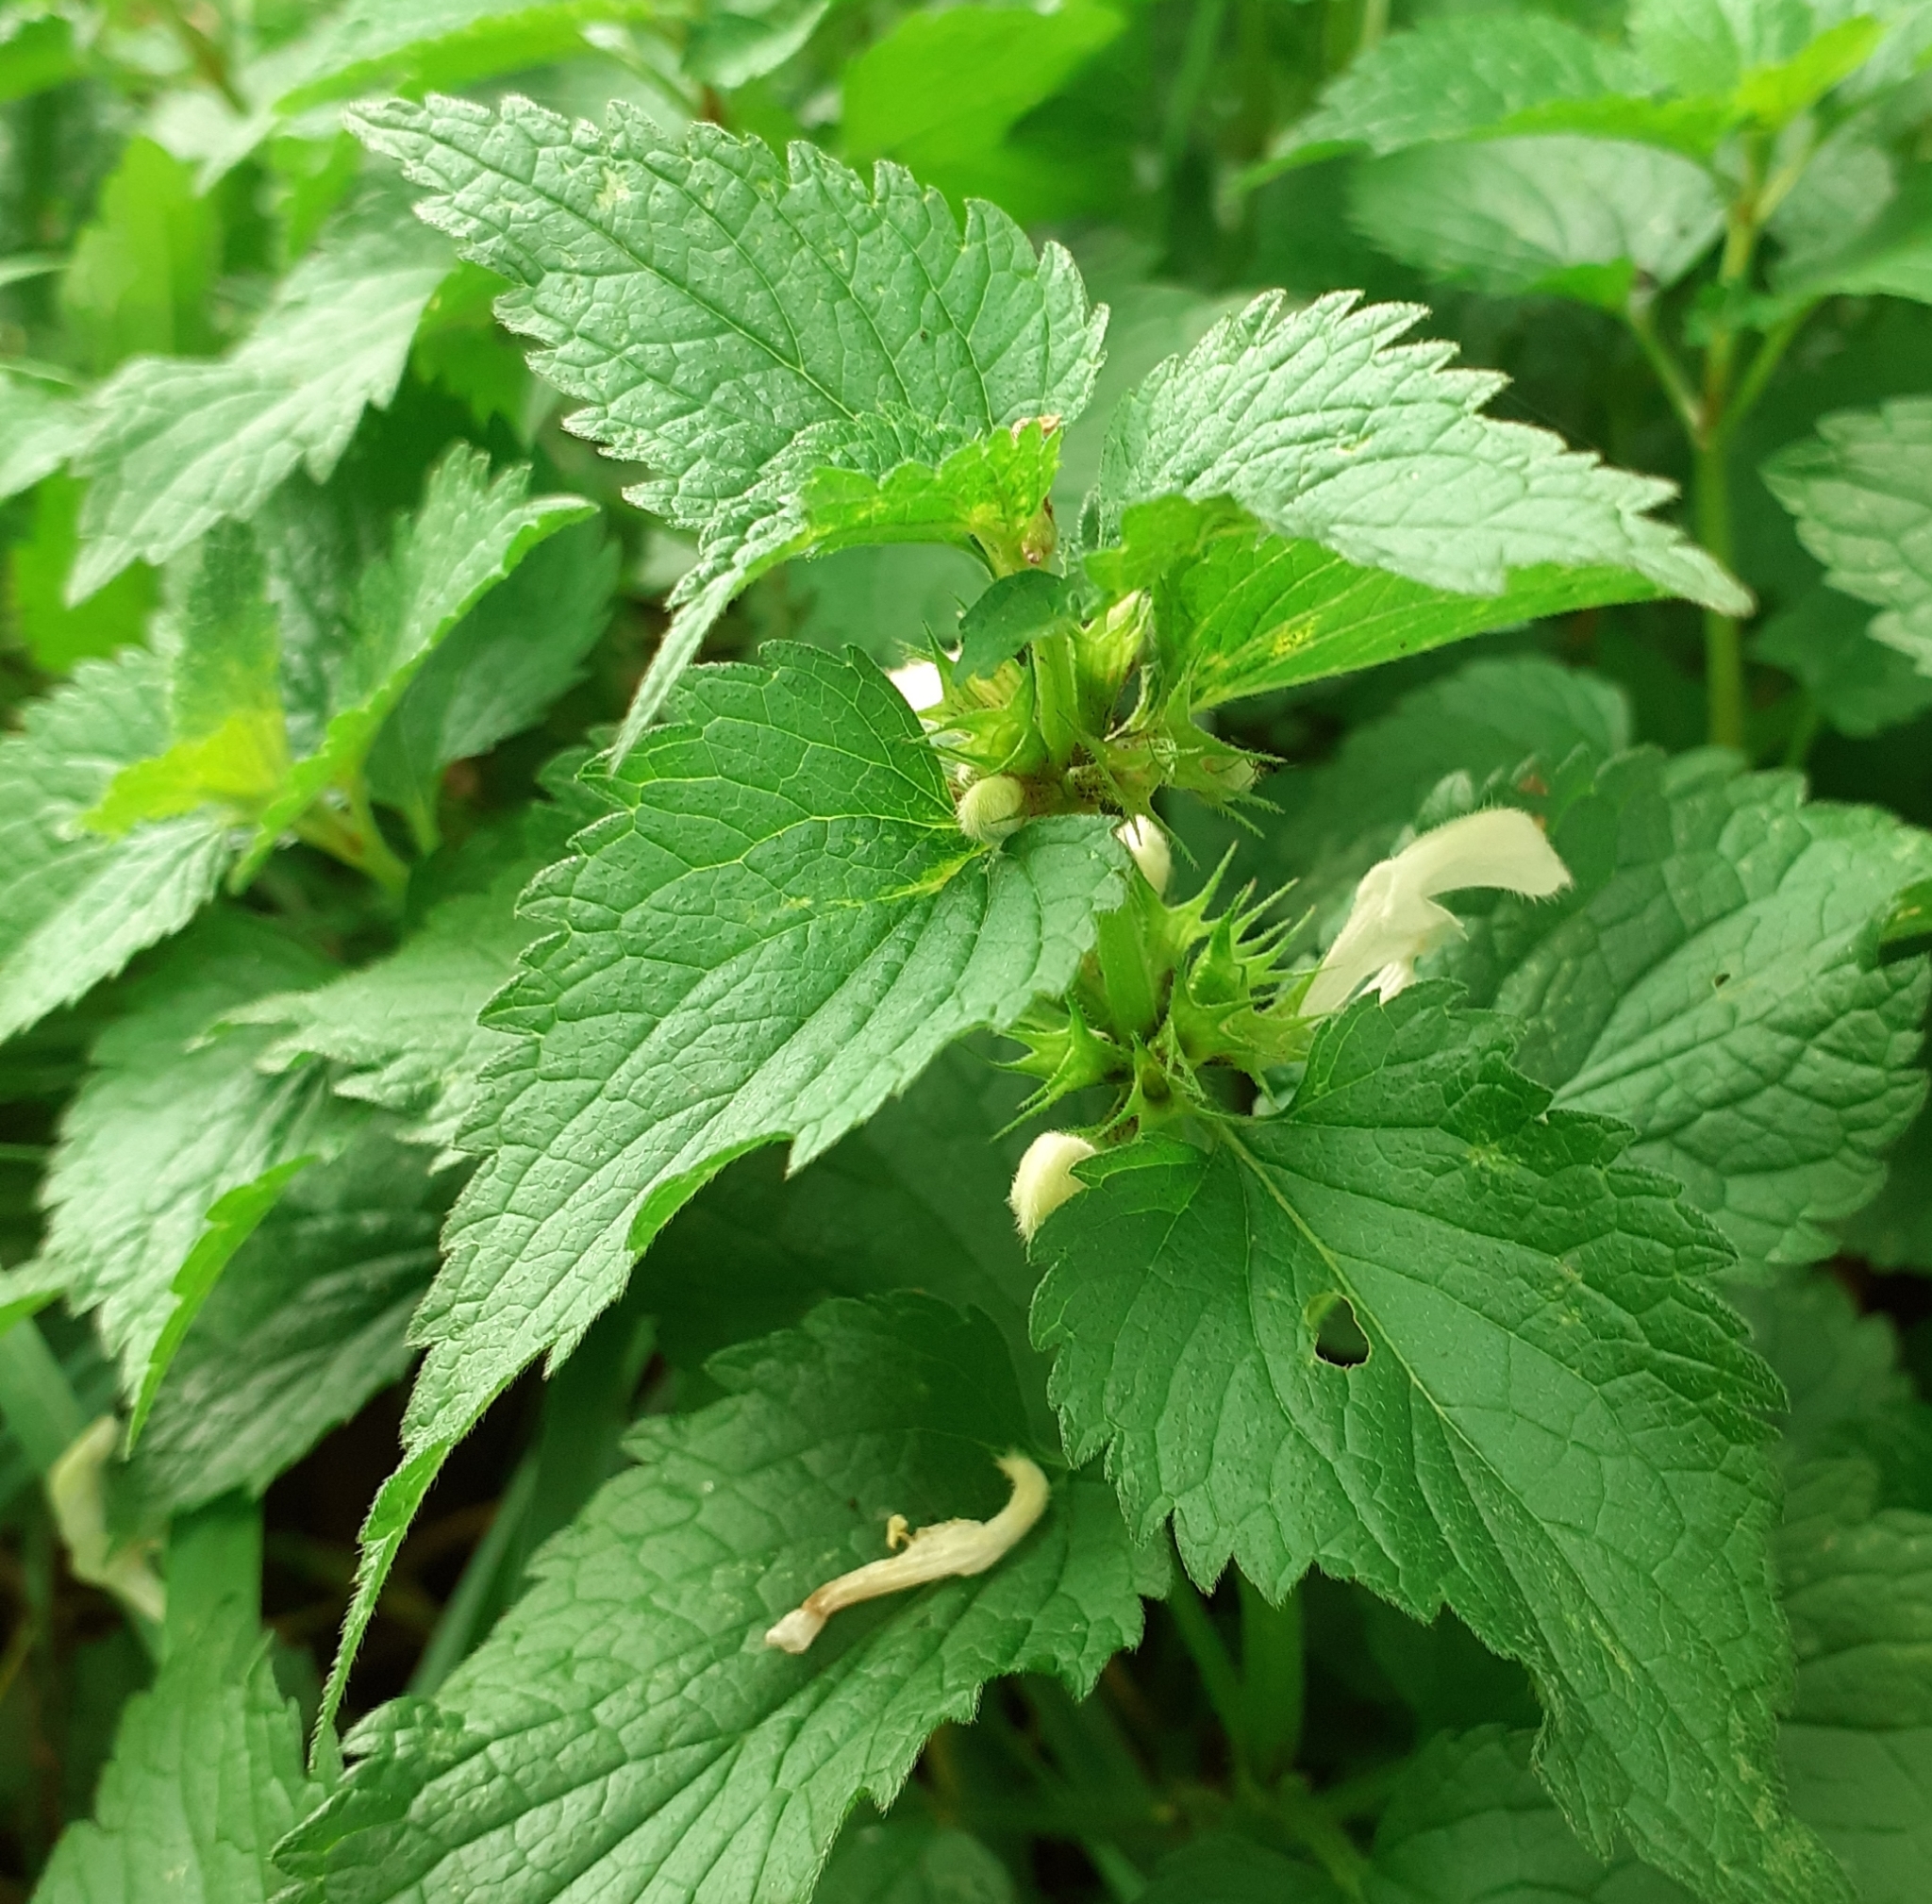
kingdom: Plantae
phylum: Tracheophyta
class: Magnoliopsida
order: Lamiales
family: Lamiaceae
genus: Lamium
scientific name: Lamium album
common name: White dead-nettle
